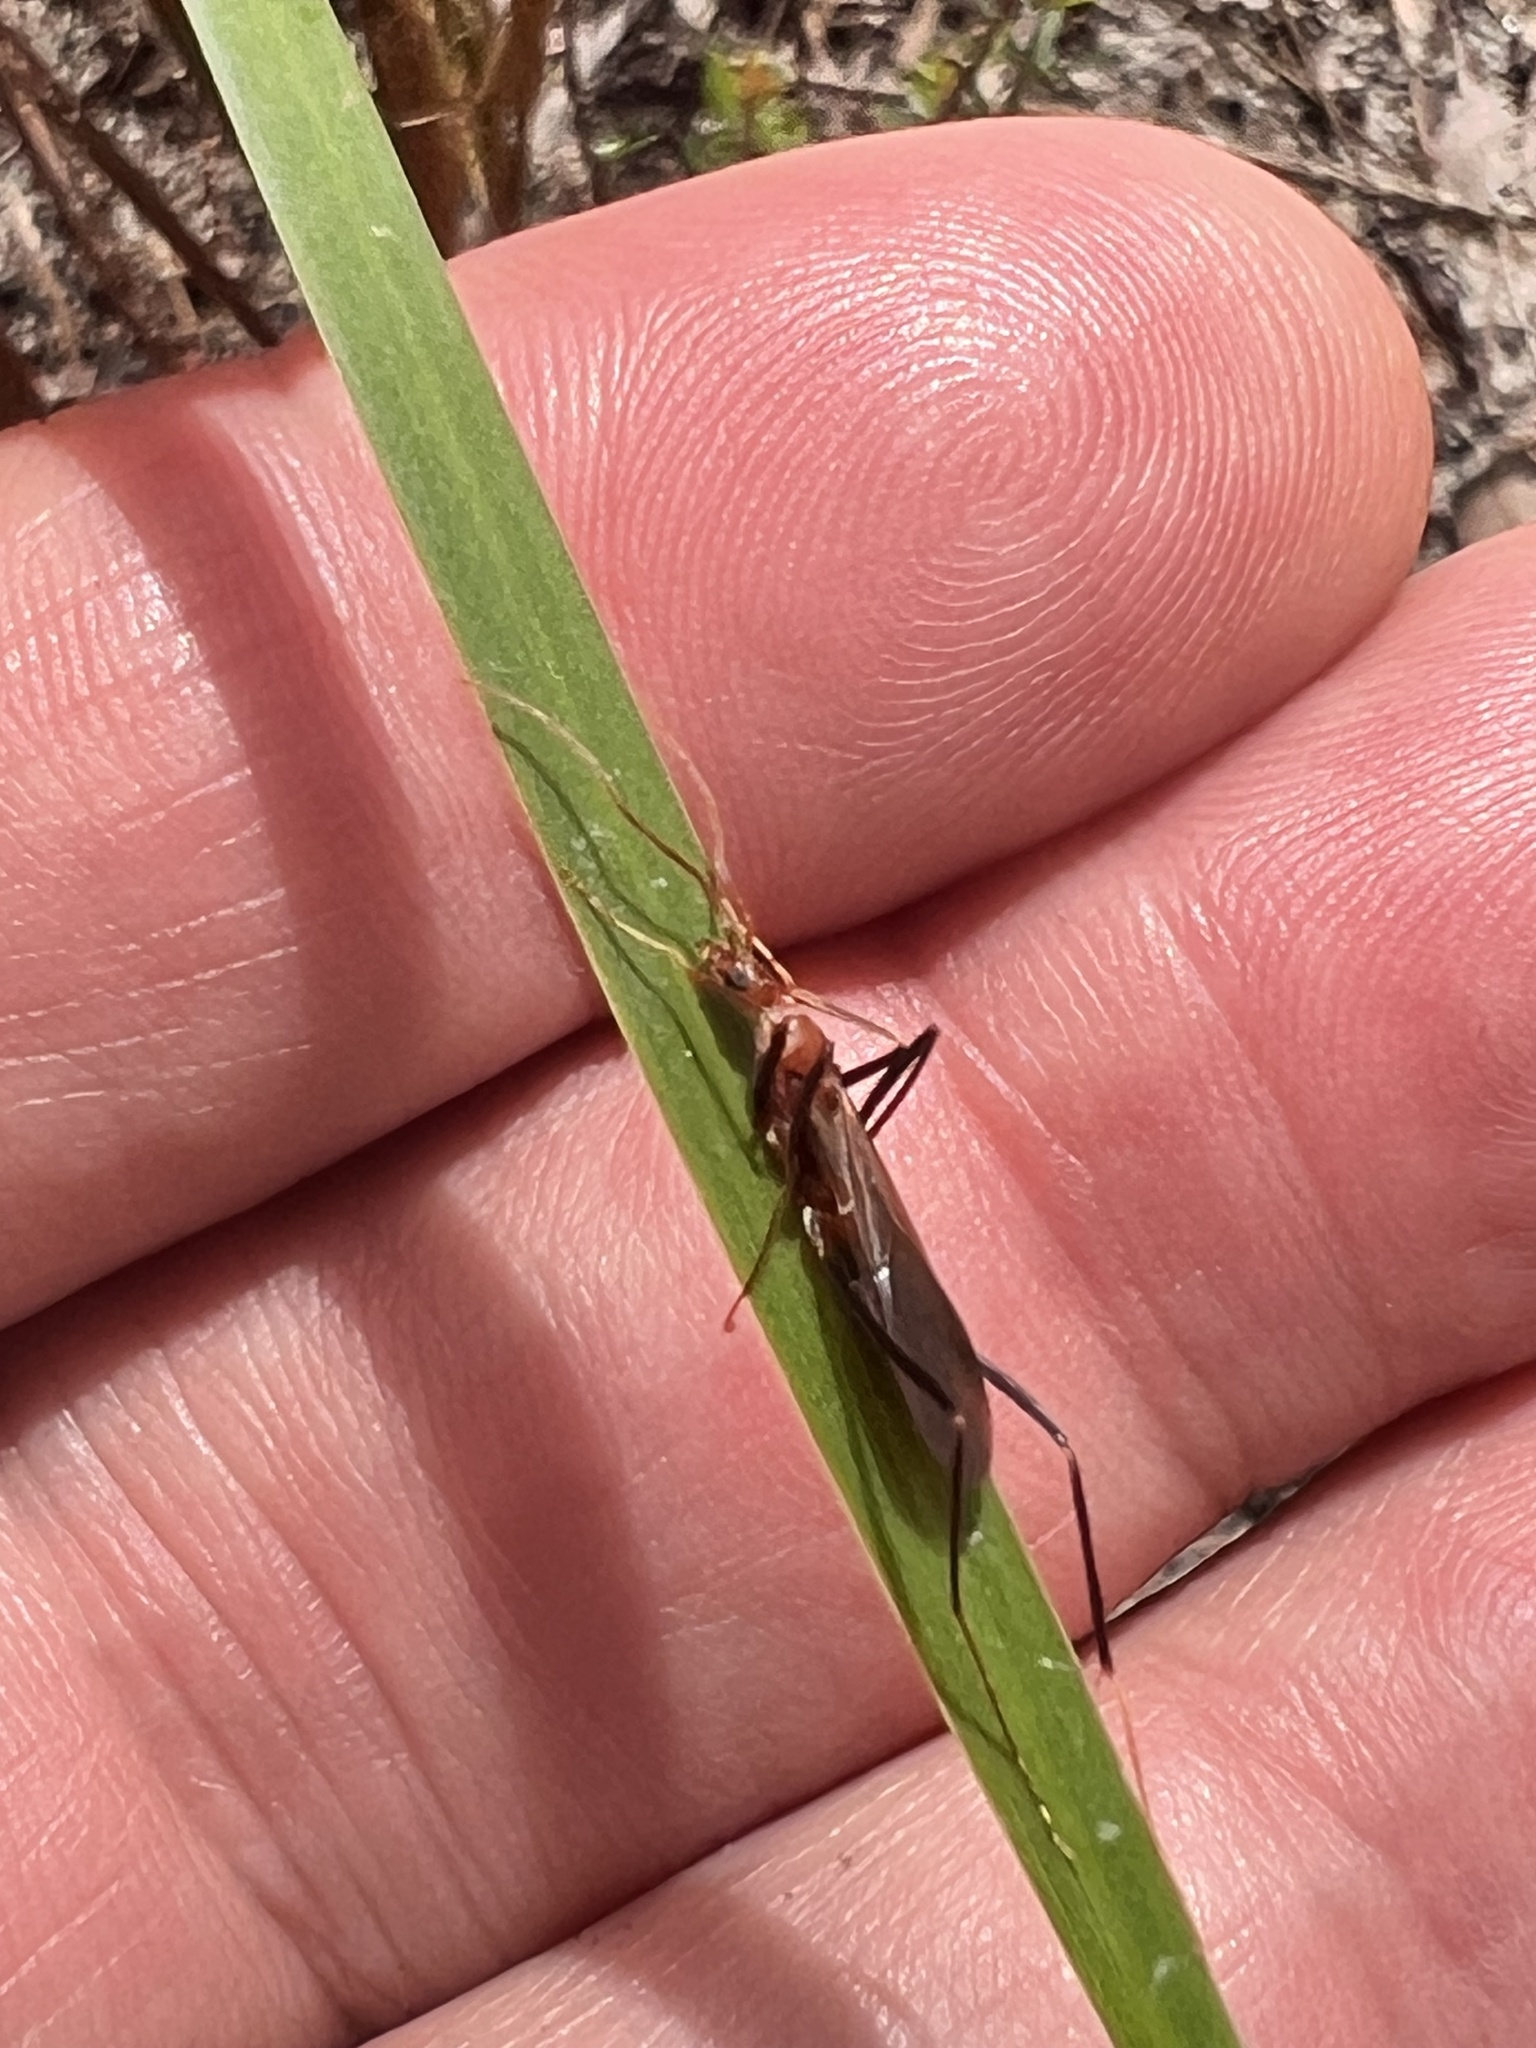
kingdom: Animalia
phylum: Arthropoda
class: Insecta
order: Hymenoptera
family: Formicidae
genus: Leptomyrmex
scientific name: Leptomyrmex erythrocephalus
